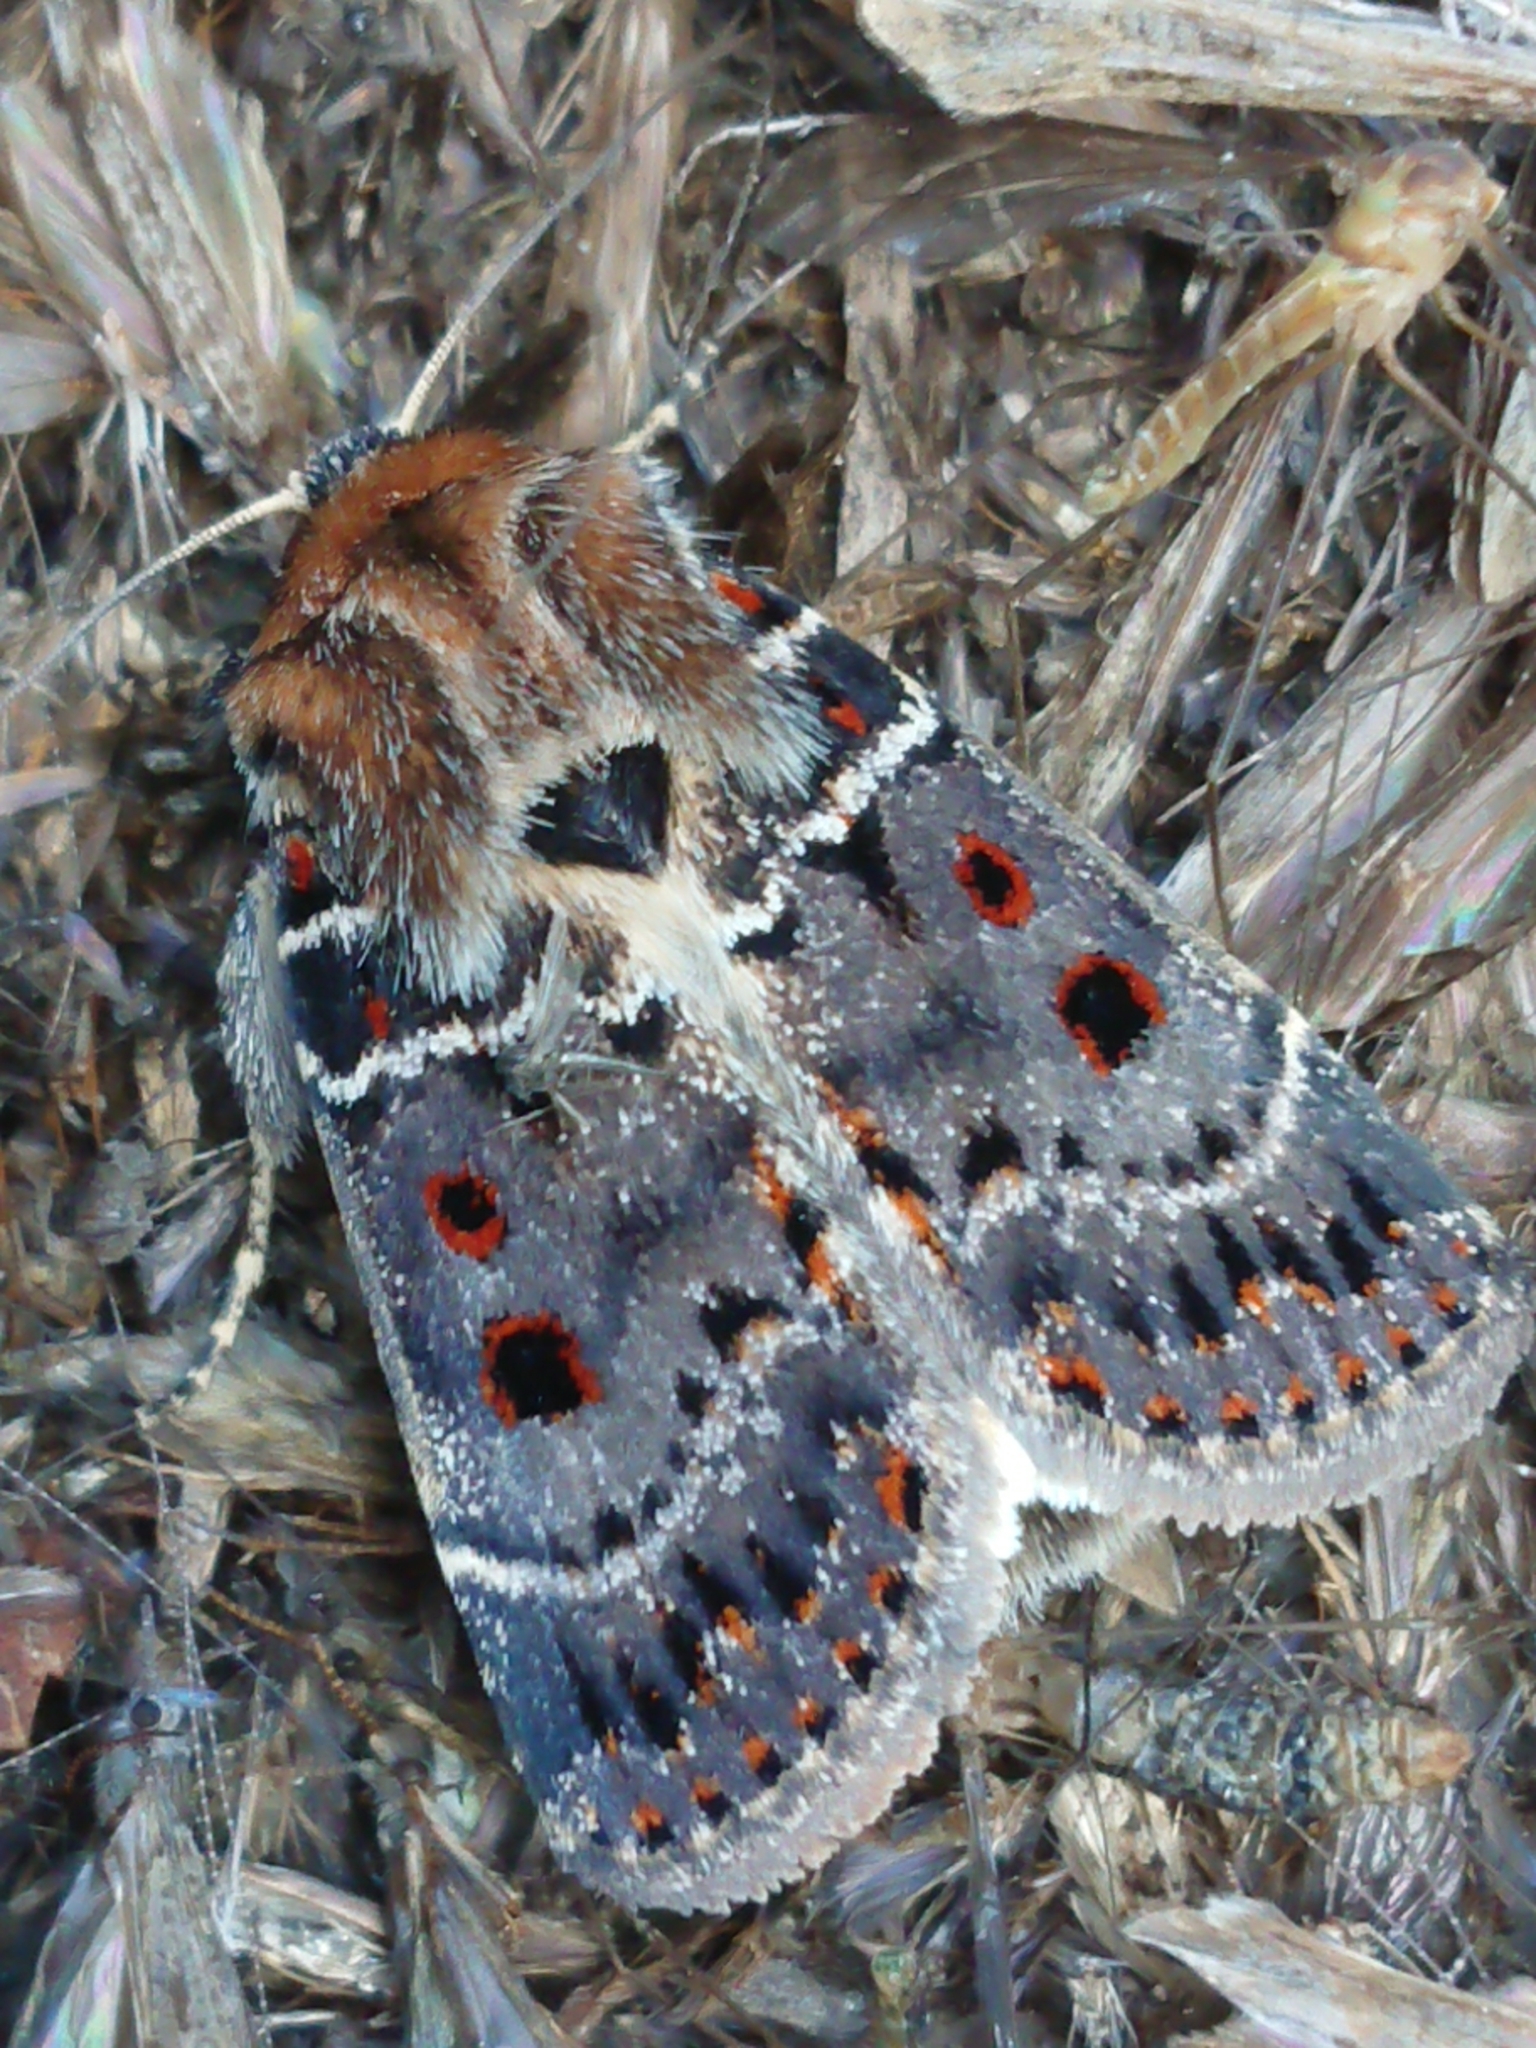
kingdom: Animalia
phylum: Arthropoda
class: Insecta
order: Lepidoptera
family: Noctuidae
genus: Proteuxoa
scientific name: Proteuxoa sanguinipuncta
